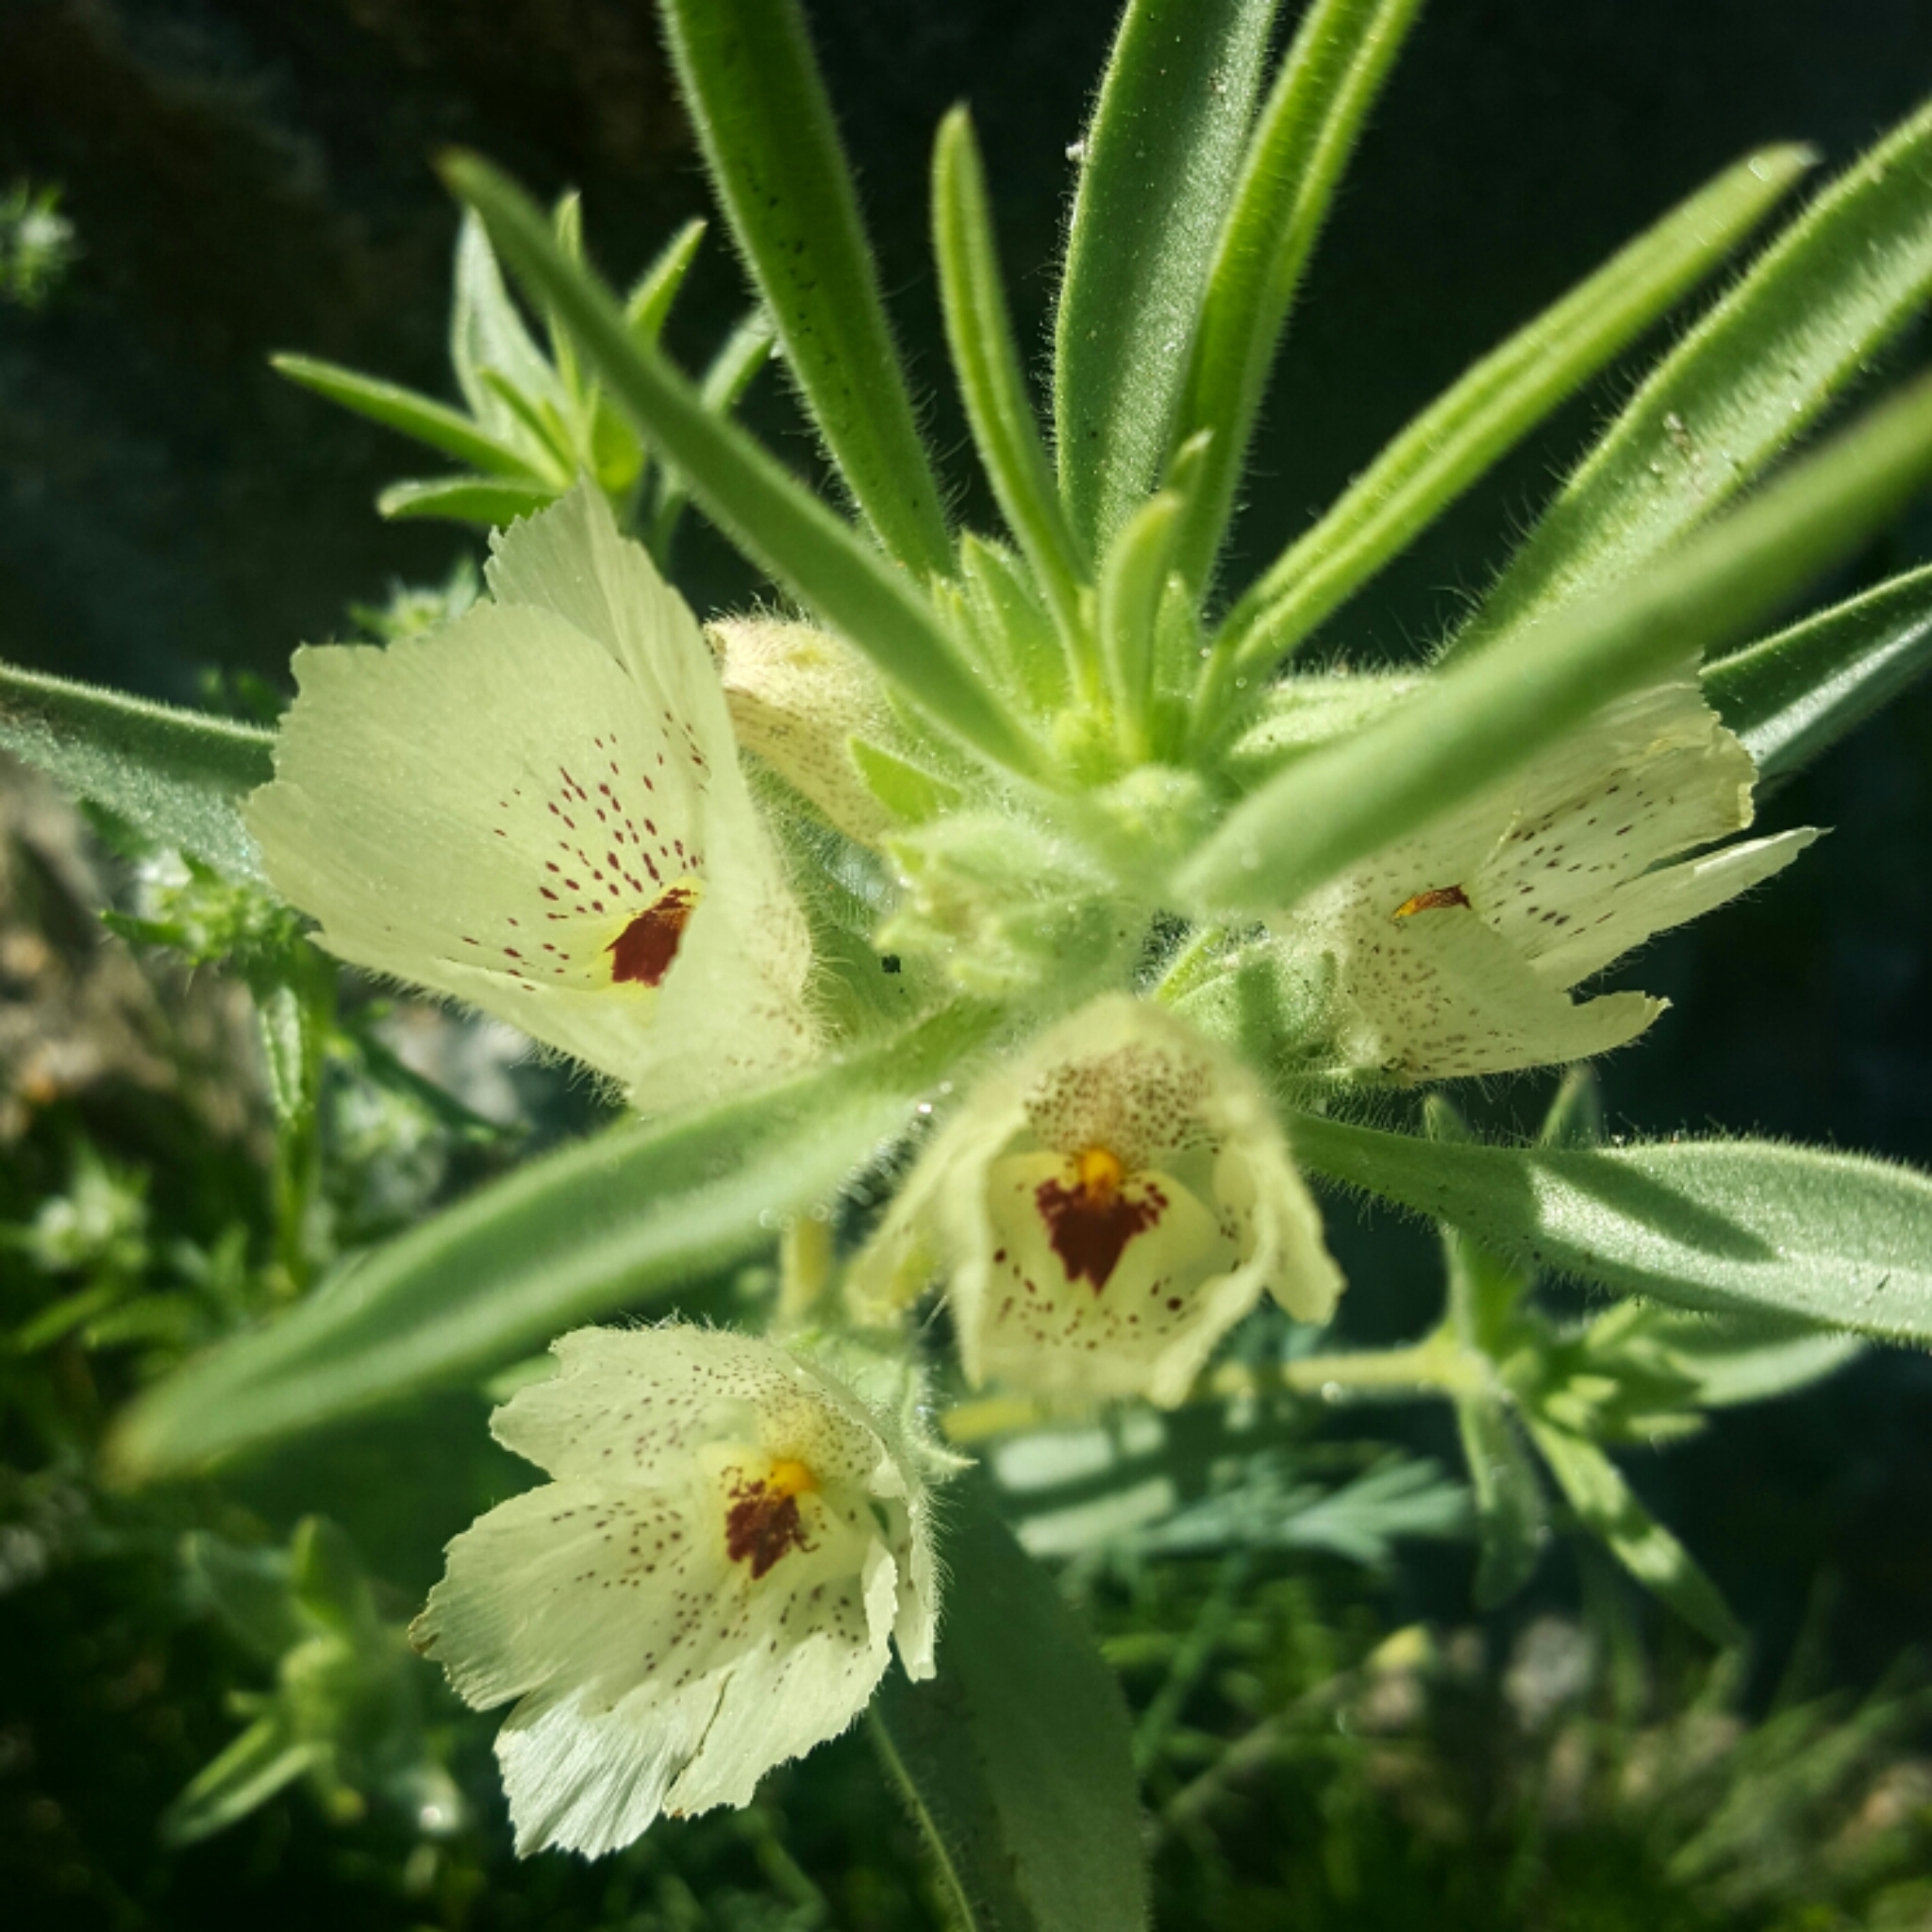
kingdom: Plantae
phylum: Tracheophyta
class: Magnoliopsida
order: Lamiales
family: Plantaginaceae
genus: Mohavea
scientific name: Mohavea confertiflora
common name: Ghost flower
